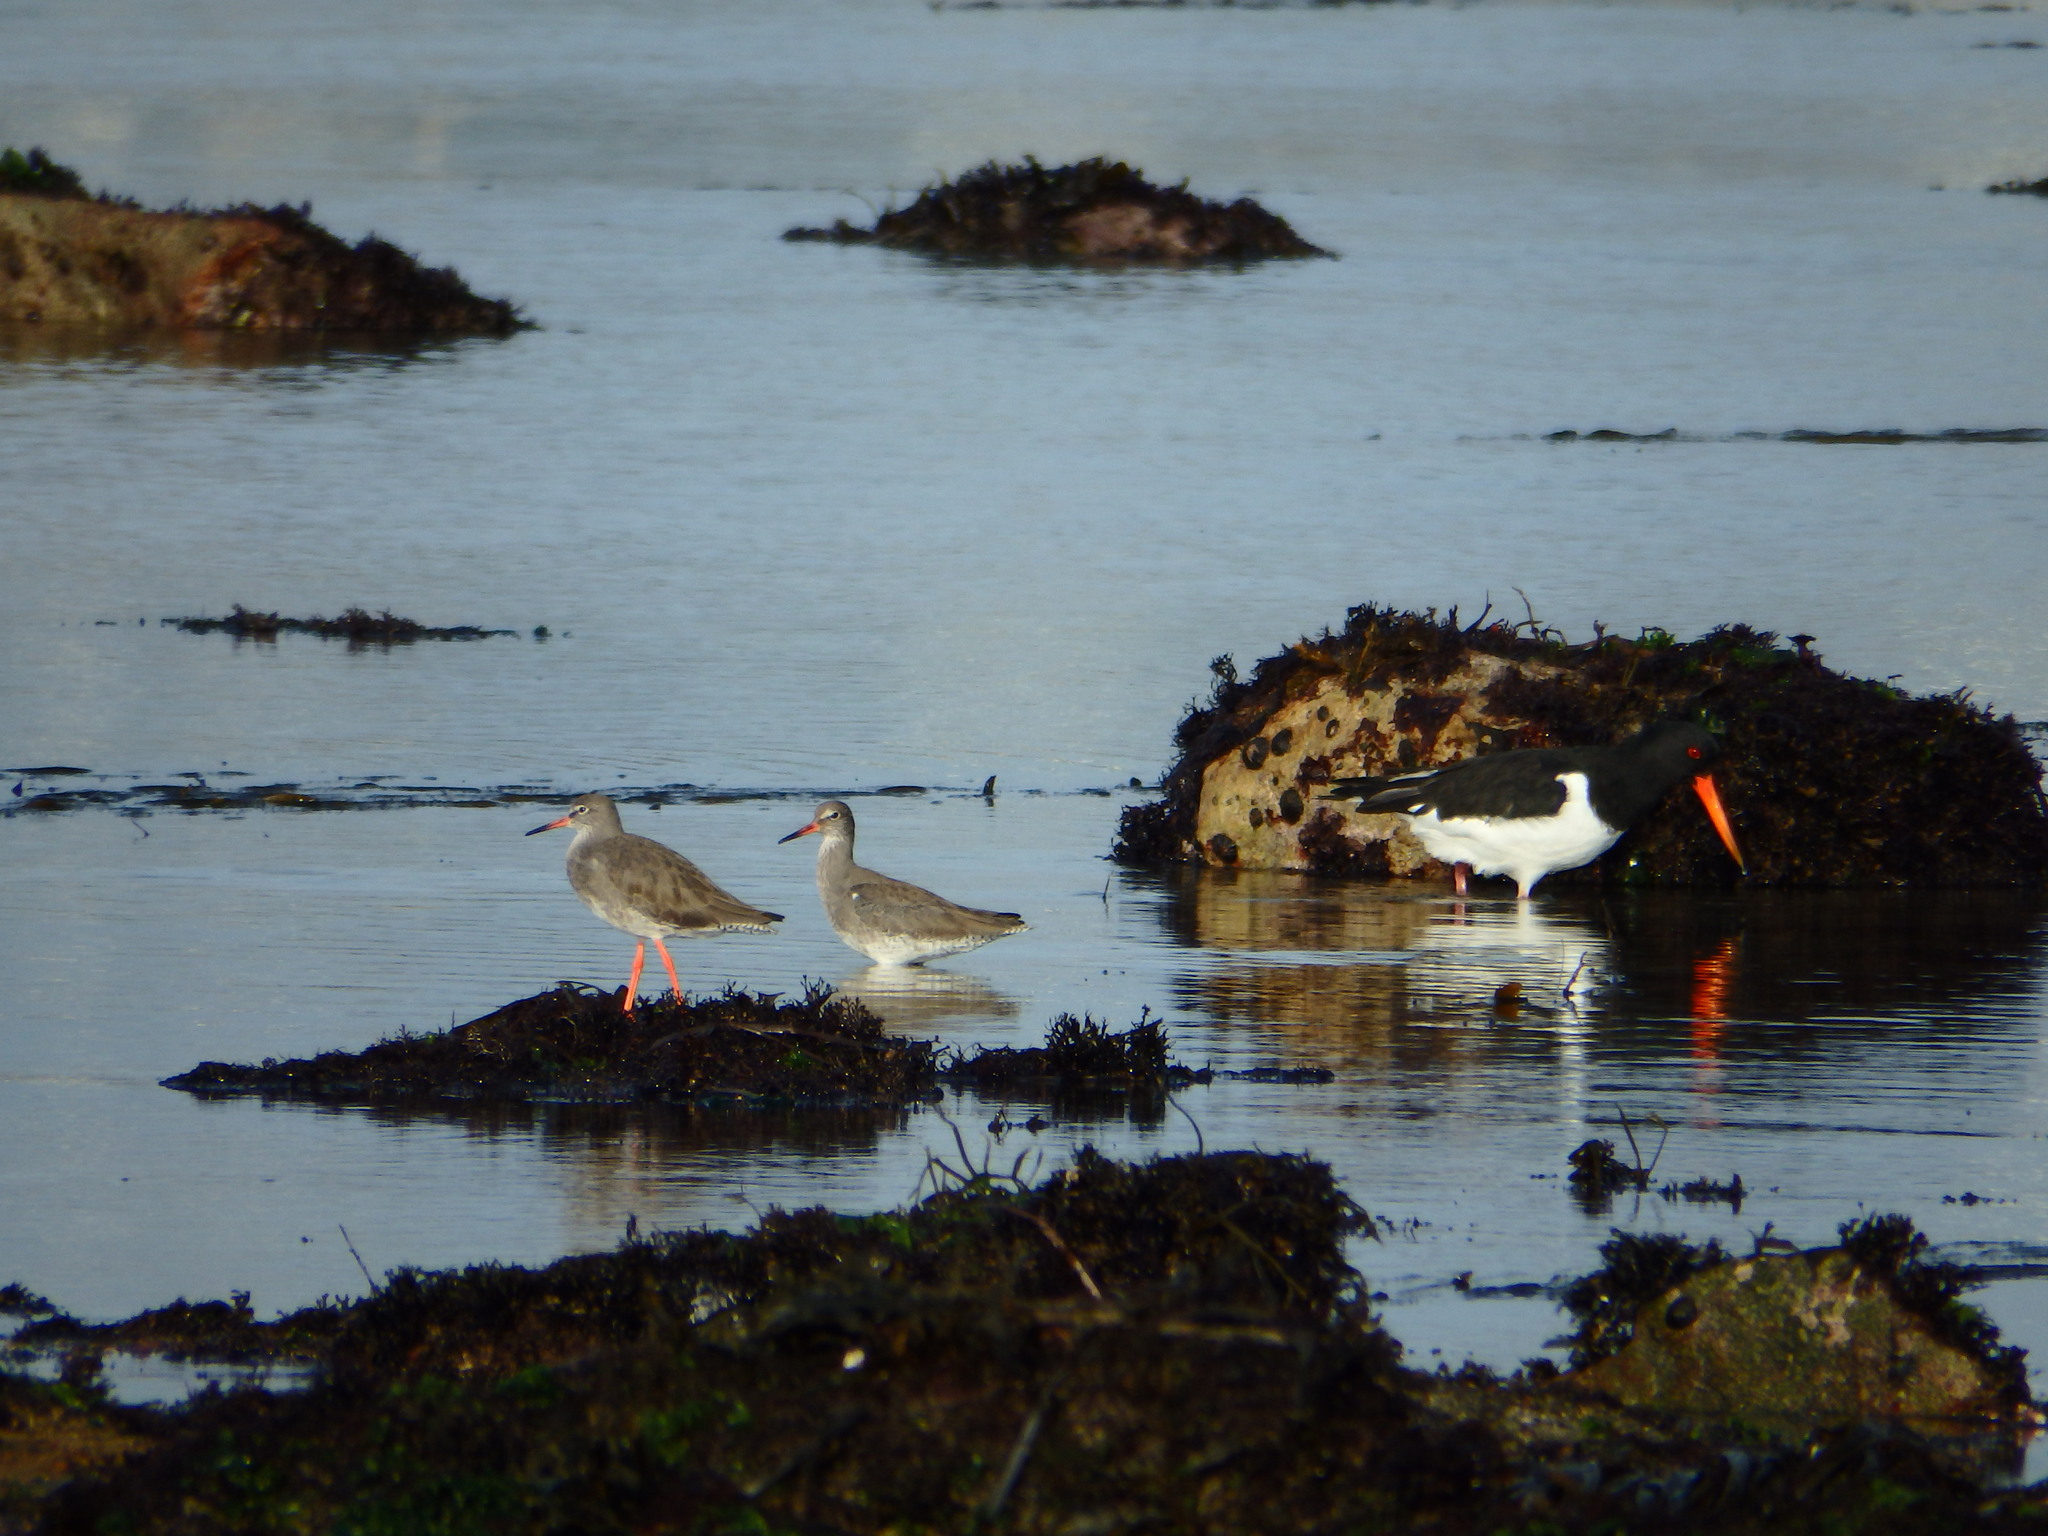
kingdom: Animalia
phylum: Chordata
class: Aves
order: Charadriiformes
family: Scolopacidae
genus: Tringa
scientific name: Tringa totanus
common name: Common redshank
